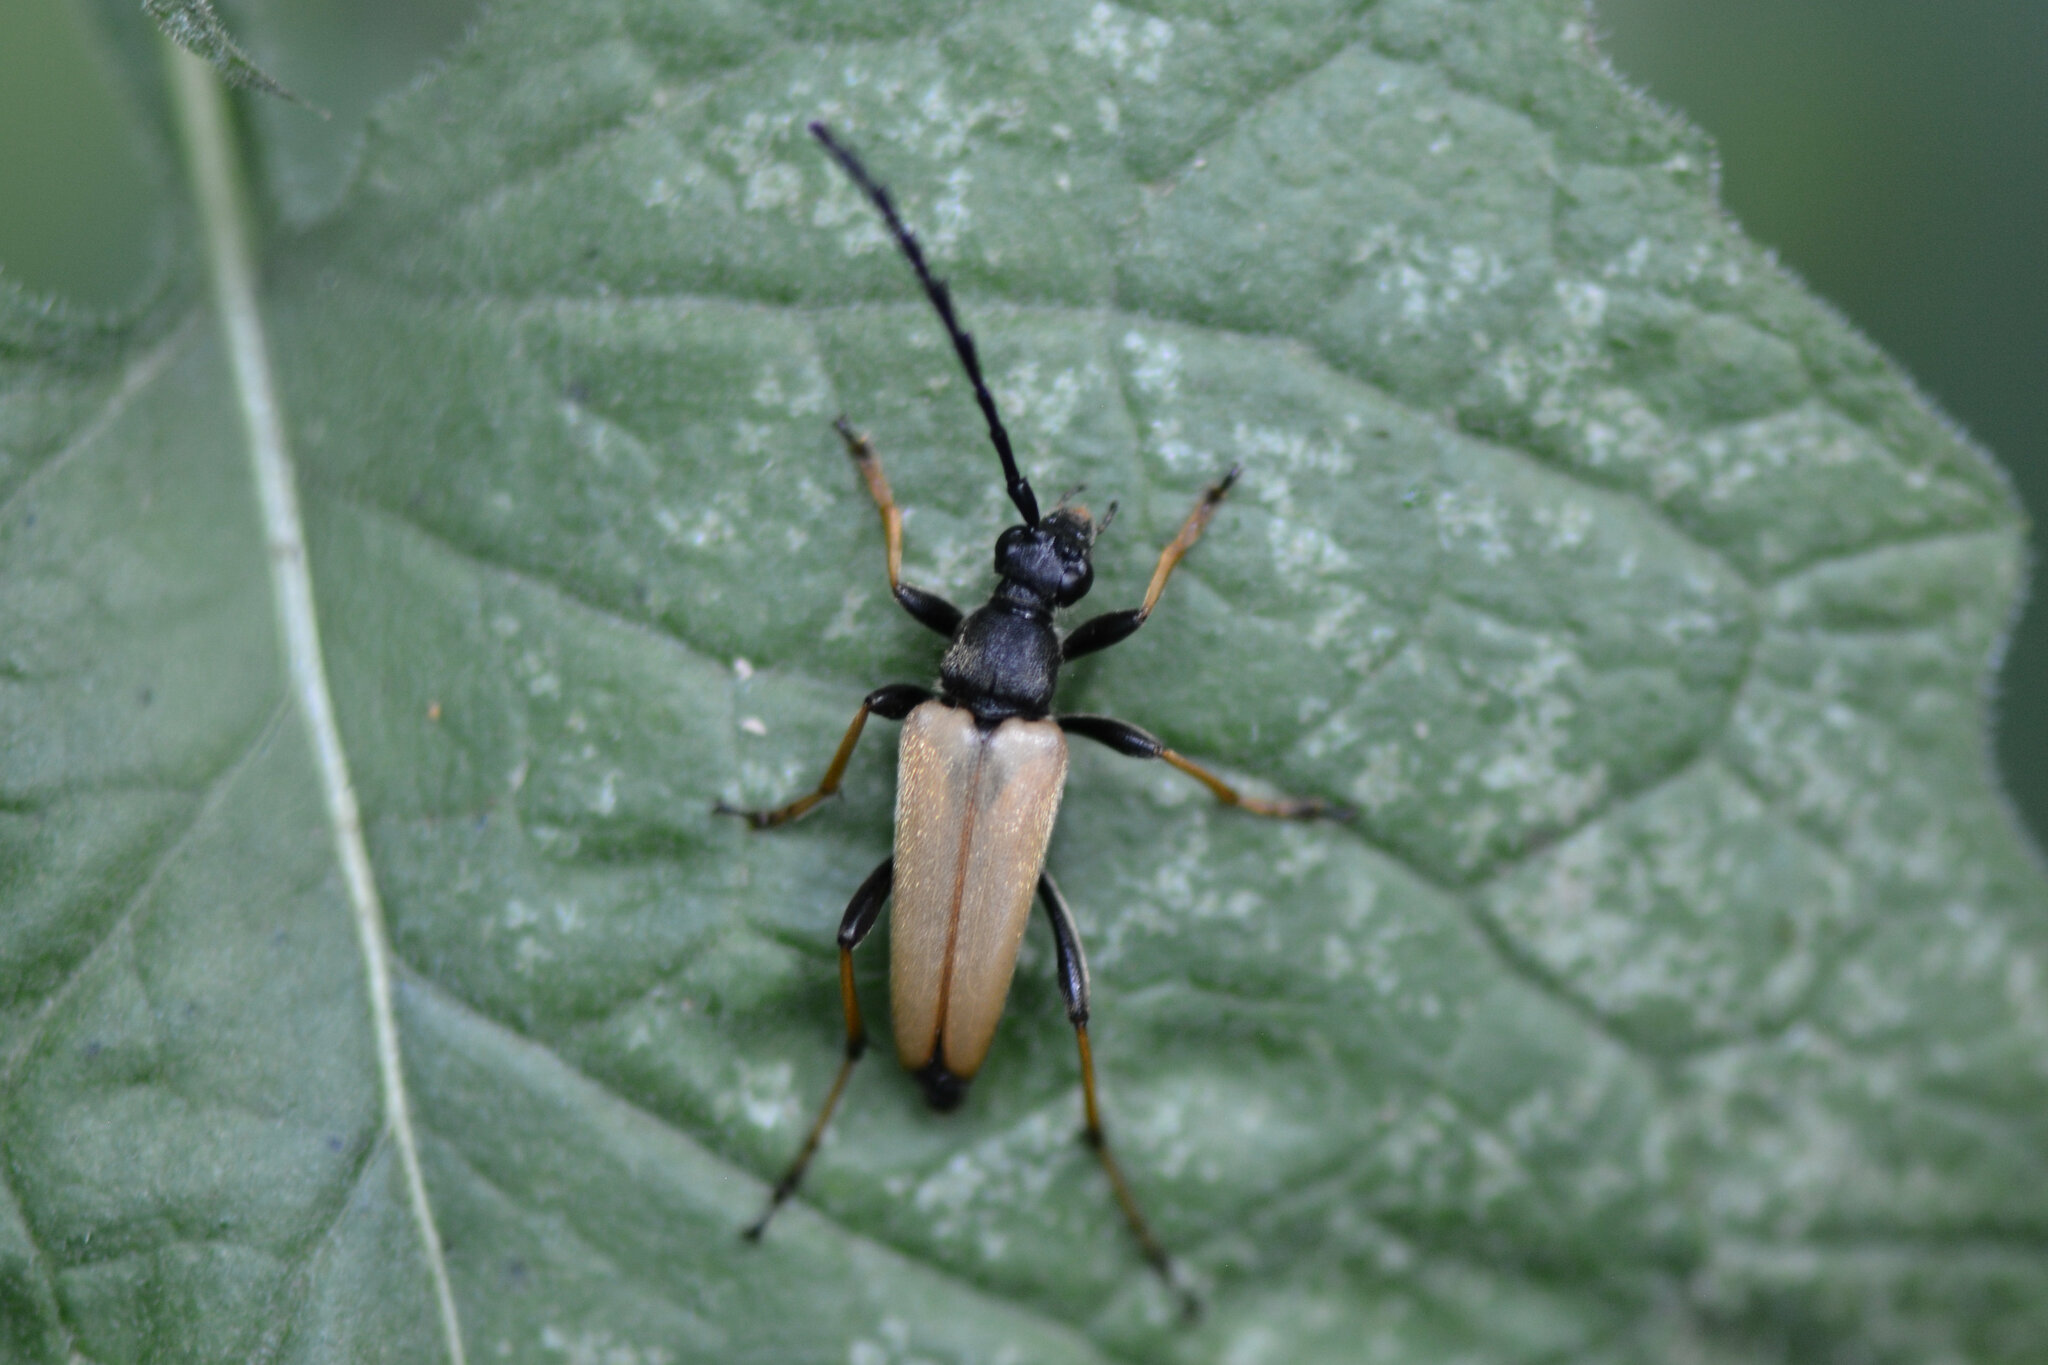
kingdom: Animalia
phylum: Arthropoda
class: Insecta
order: Coleoptera
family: Cerambycidae
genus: Stictoleptura
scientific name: Stictoleptura rubra
